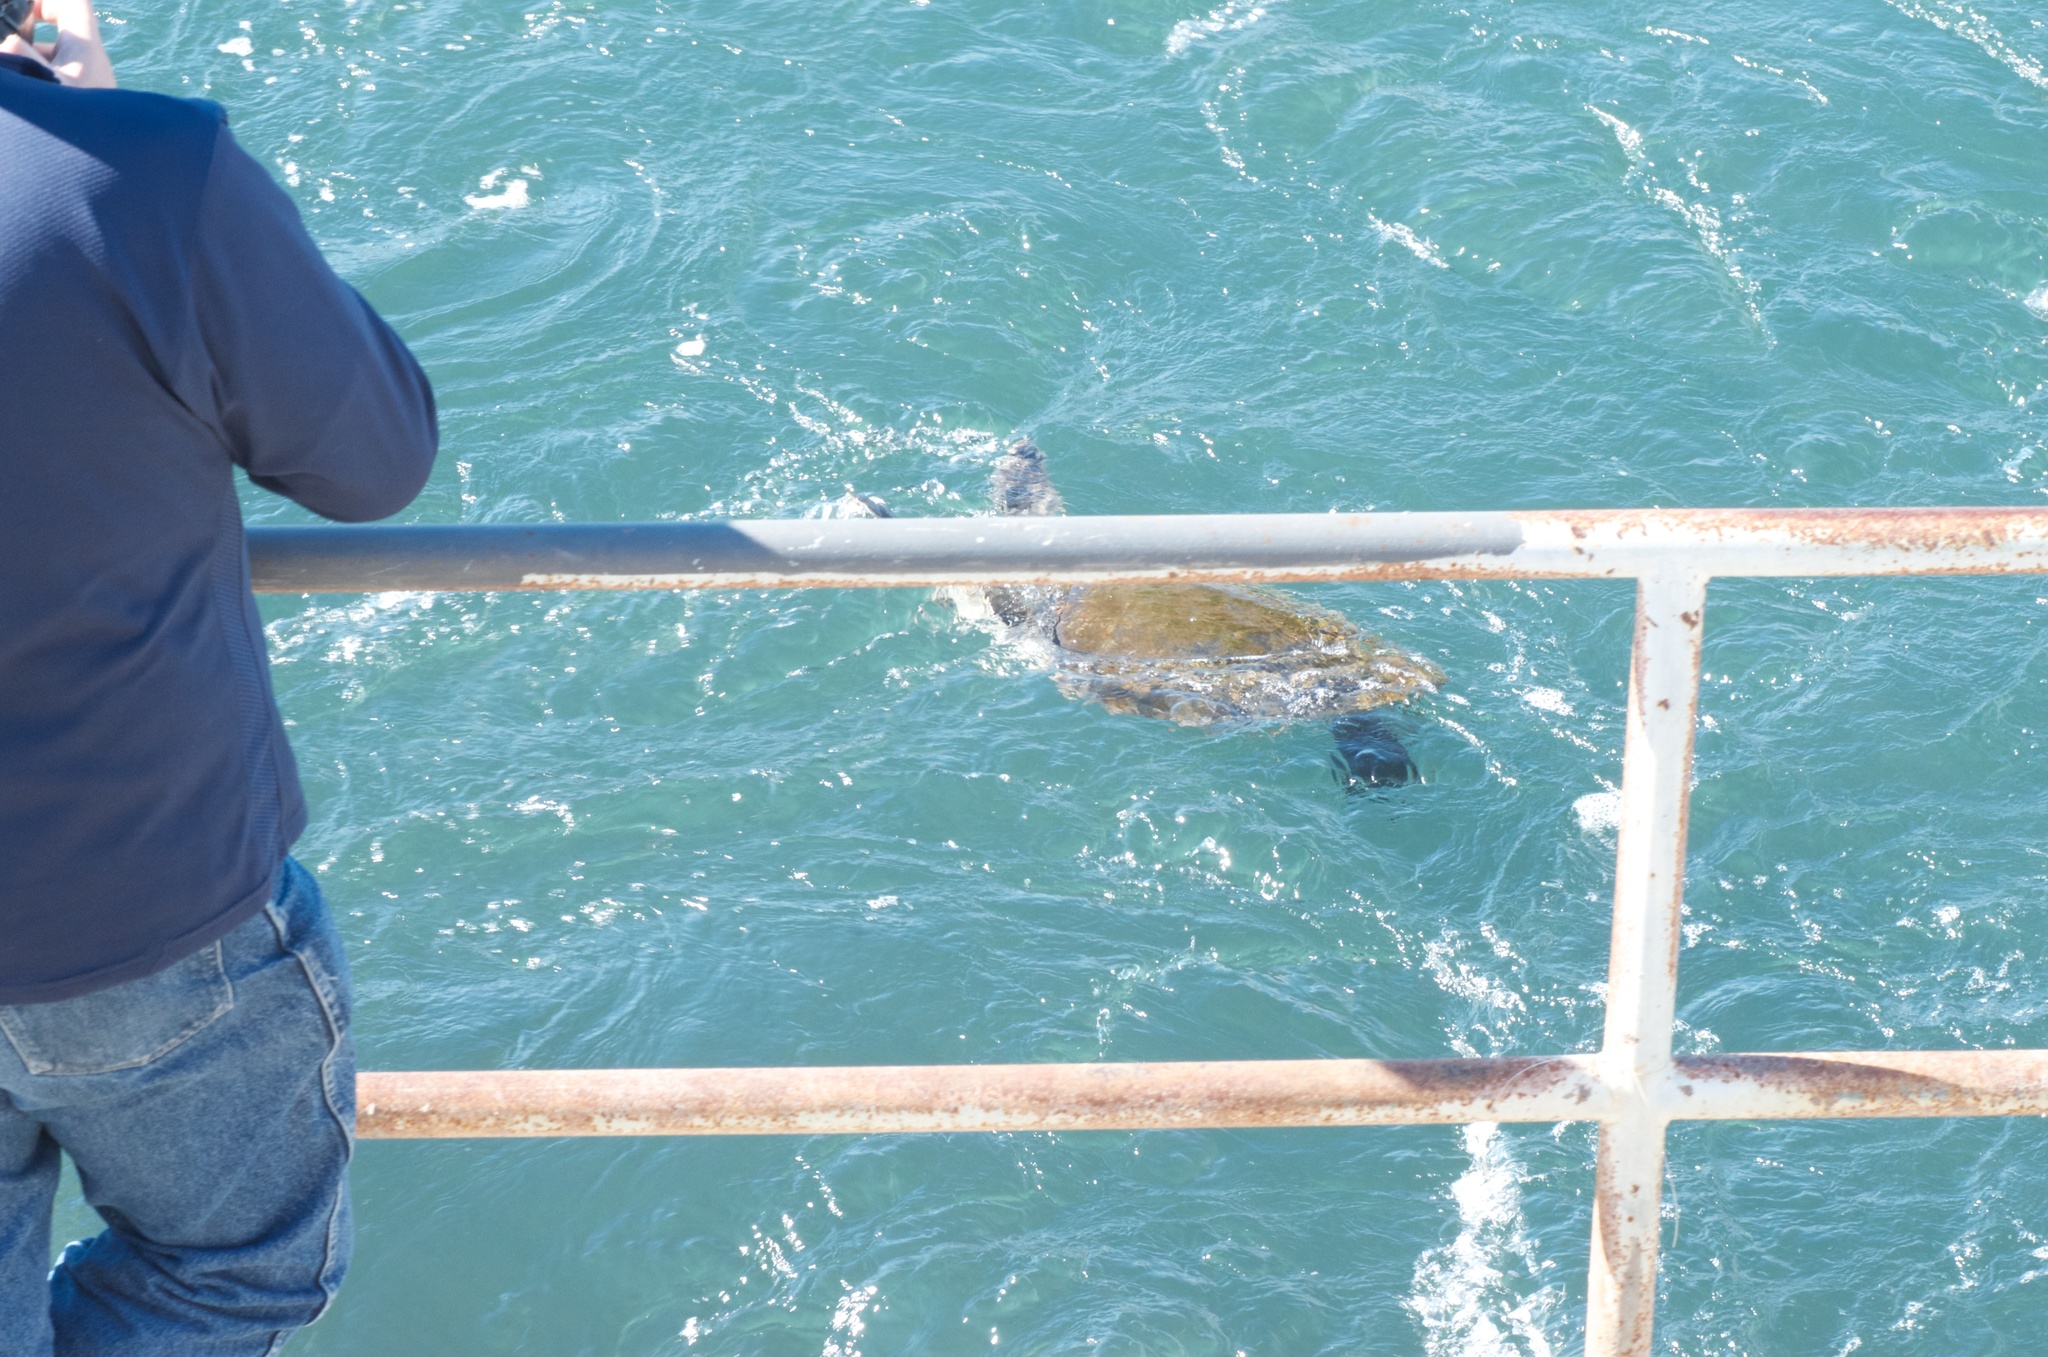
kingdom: Animalia
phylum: Chordata
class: Testudines
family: Cheloniidae
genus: Chelonia
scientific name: Chelonia mydas
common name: Green turtle
